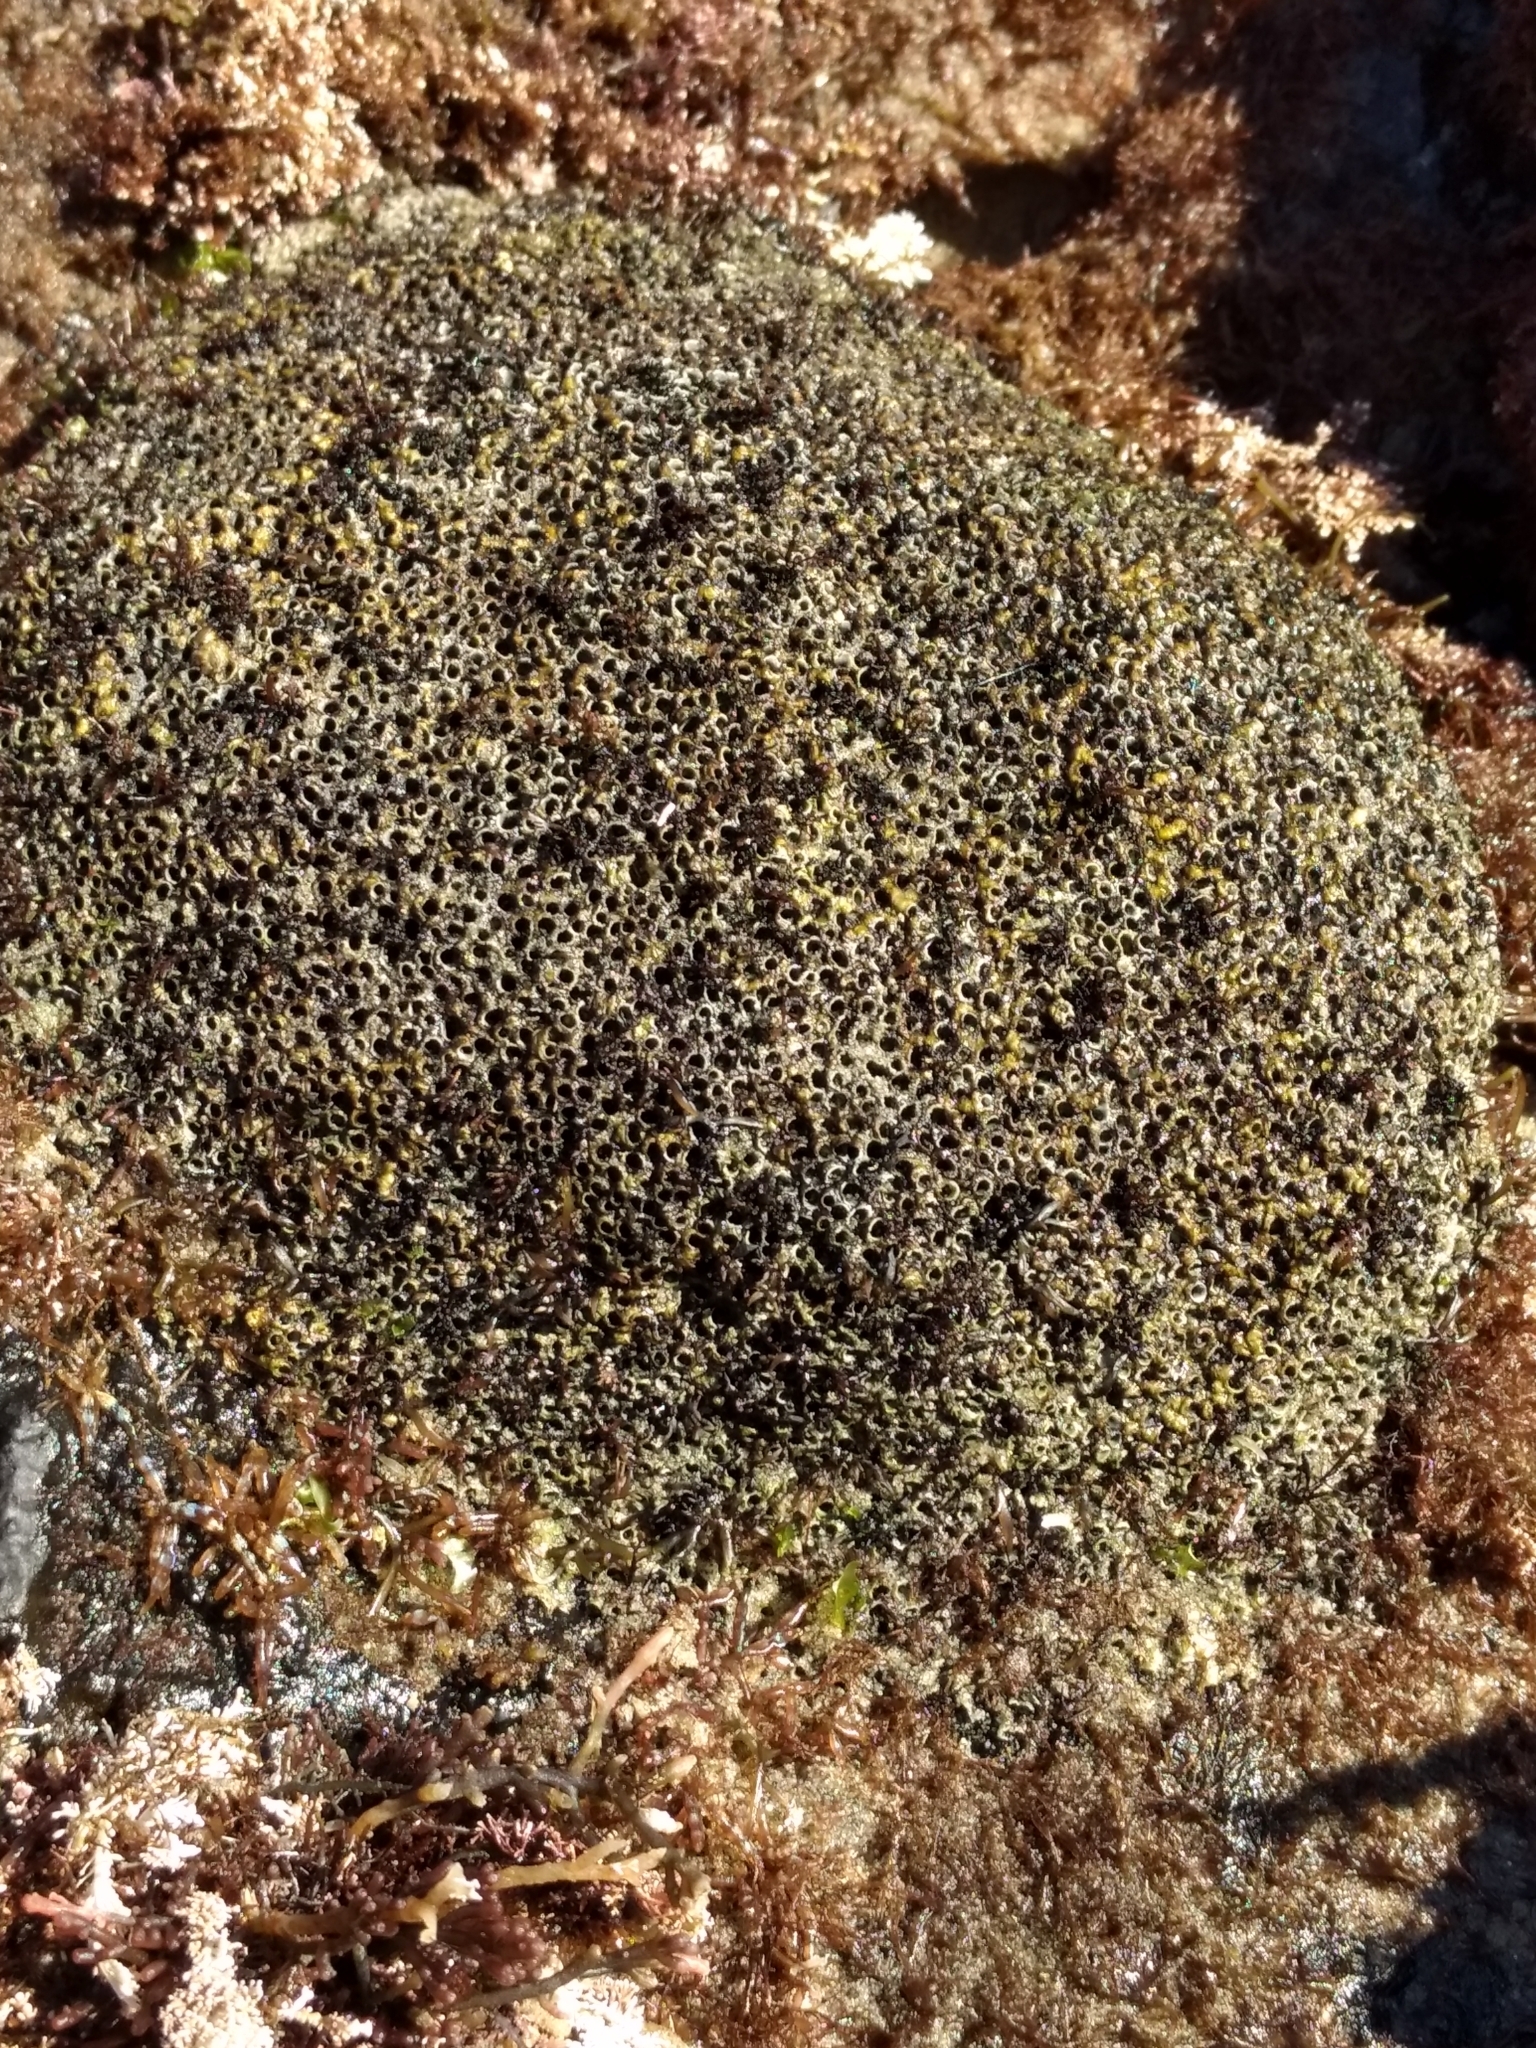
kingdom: Animalia
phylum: Annelida
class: Polychaeta
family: Cirratulidae
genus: Dodecaceria
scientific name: Dodecaceria pacifica
